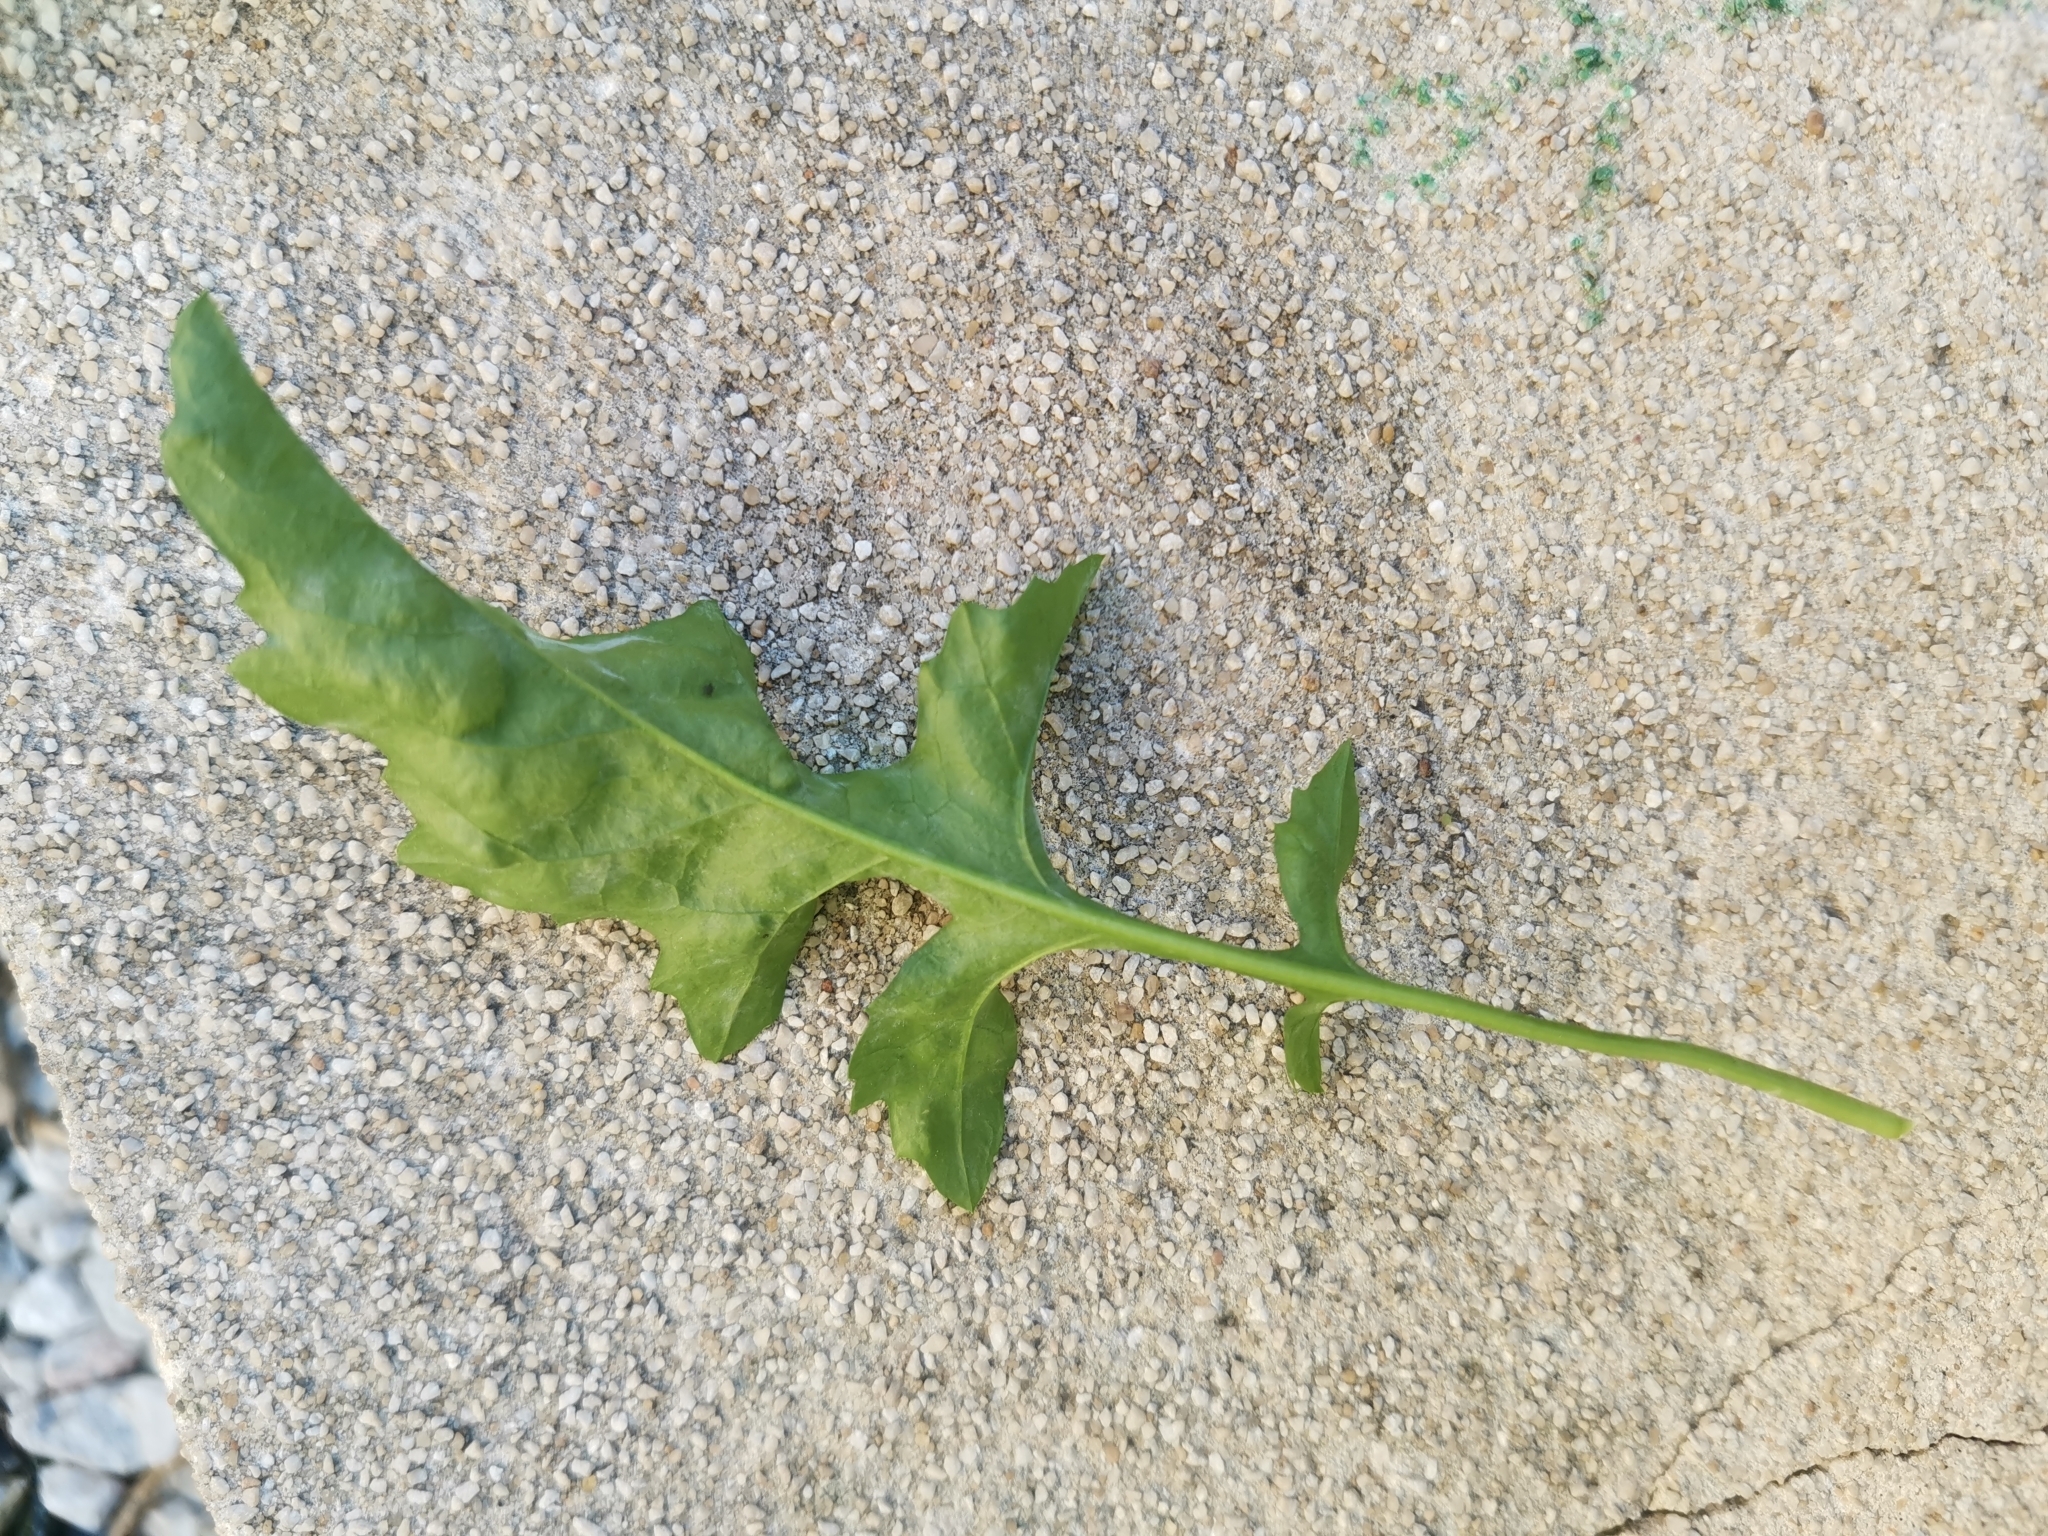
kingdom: Plantae
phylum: Tracheophyta
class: Magnoliopsida
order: Brassicales
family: Brassicaceae
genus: Sisymbrium
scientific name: Sisymbrium irio
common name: London rocket
